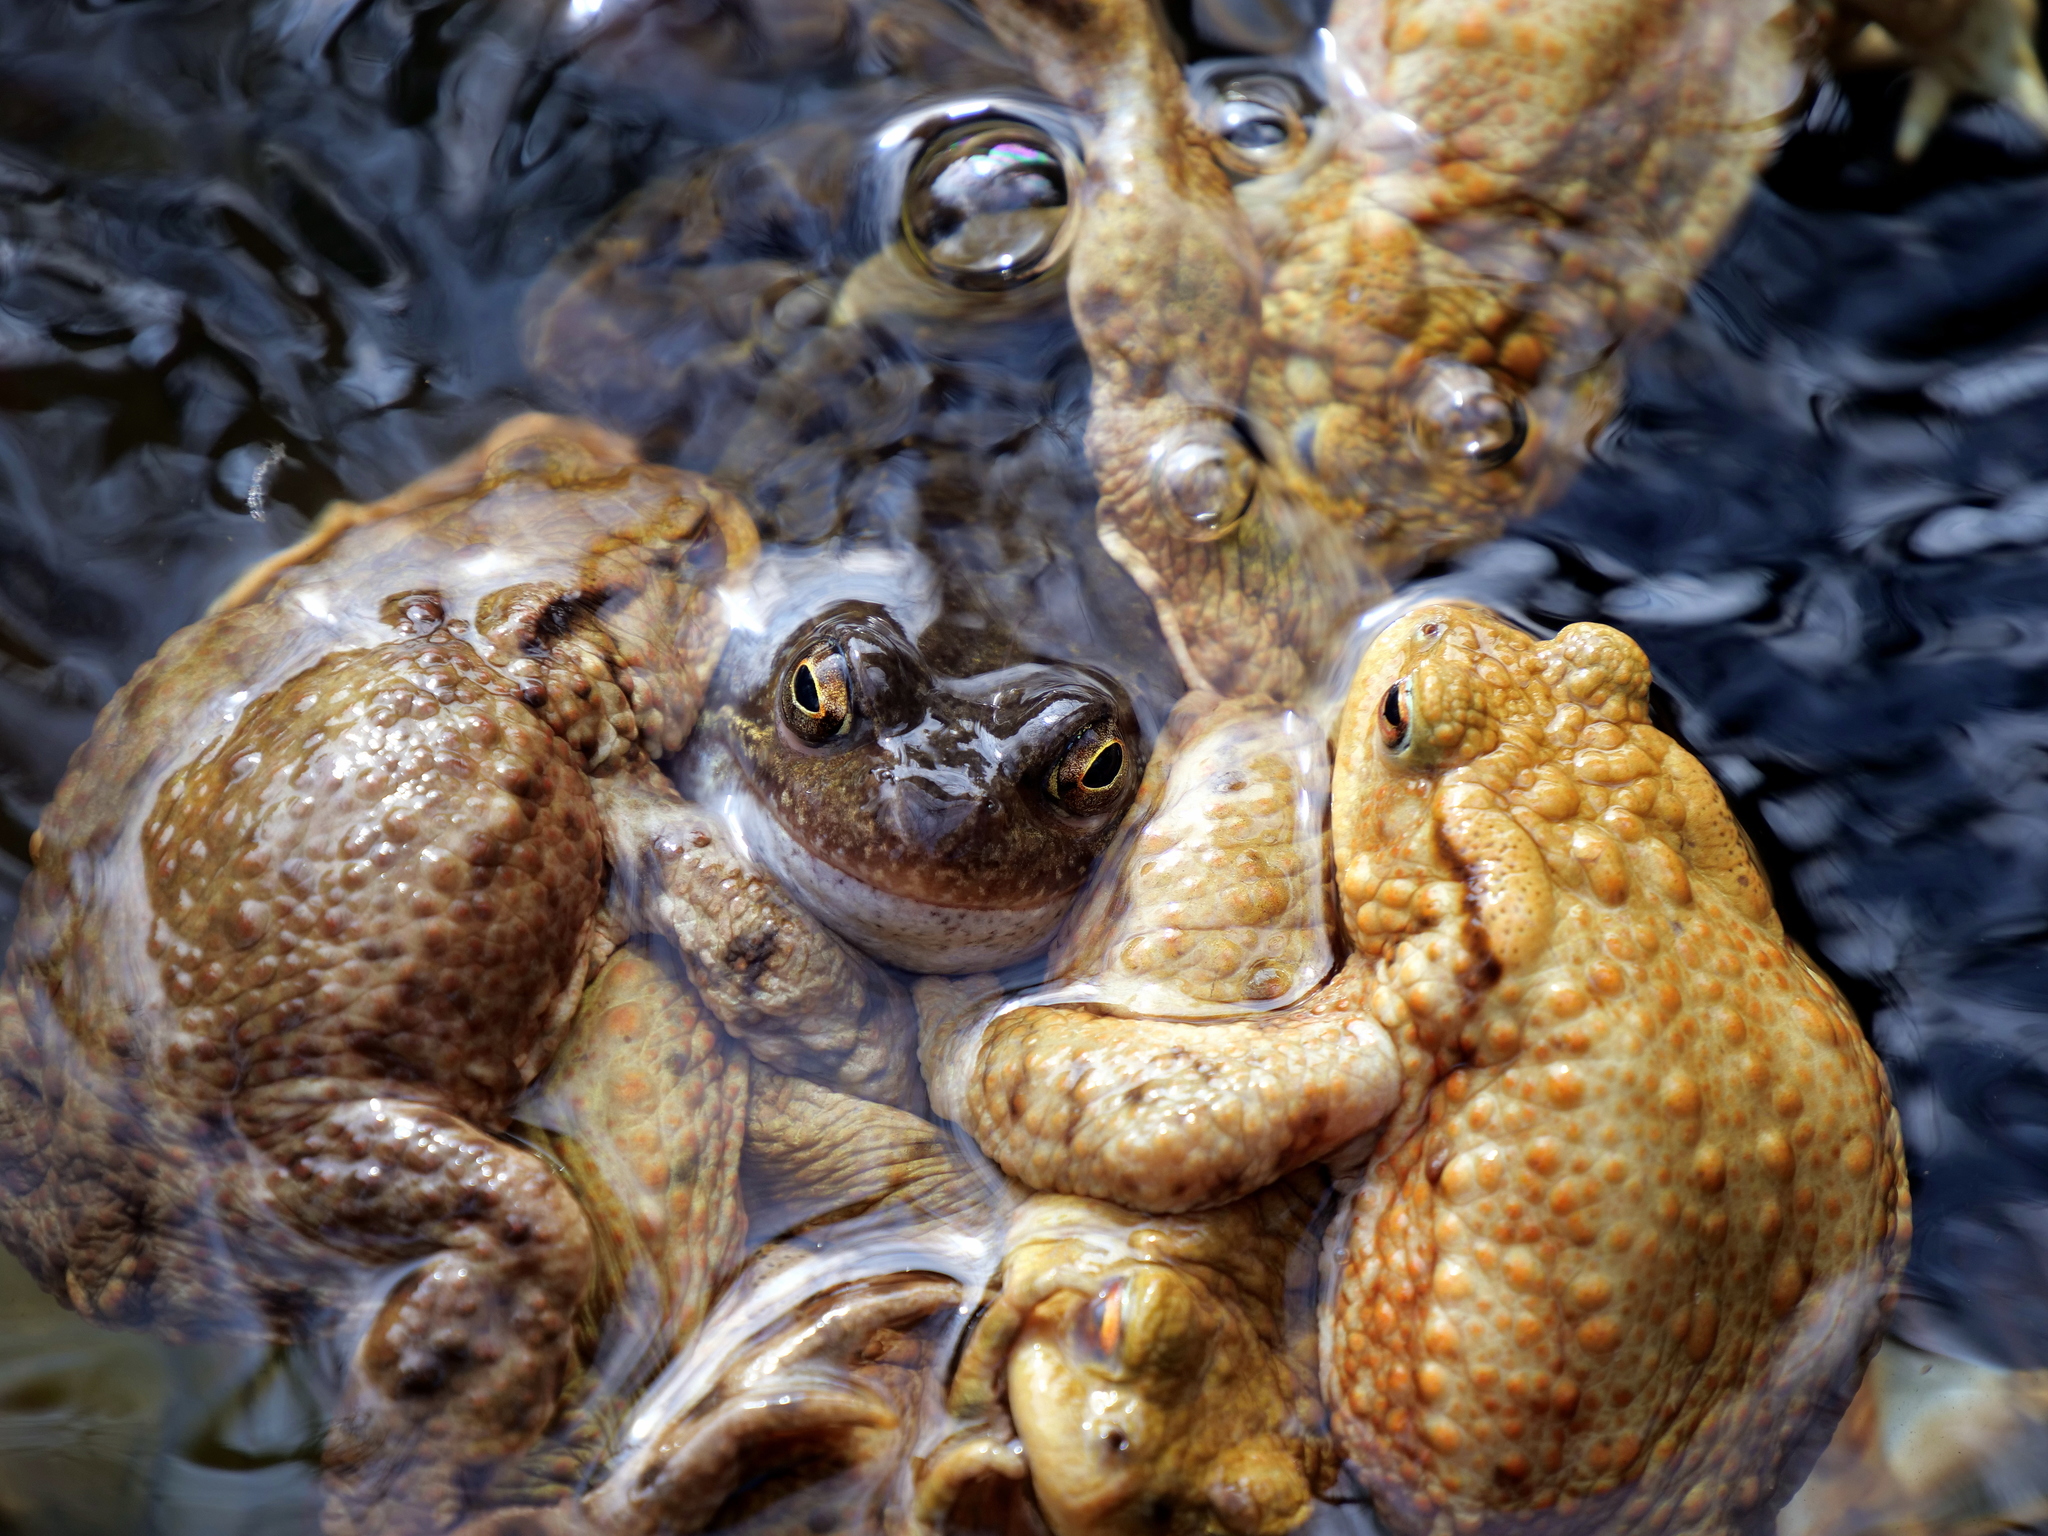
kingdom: Animalia
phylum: Chordata
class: Amphibia
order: Anura
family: Ranidae
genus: Rana
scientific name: Rana temporaria
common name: Common frog
